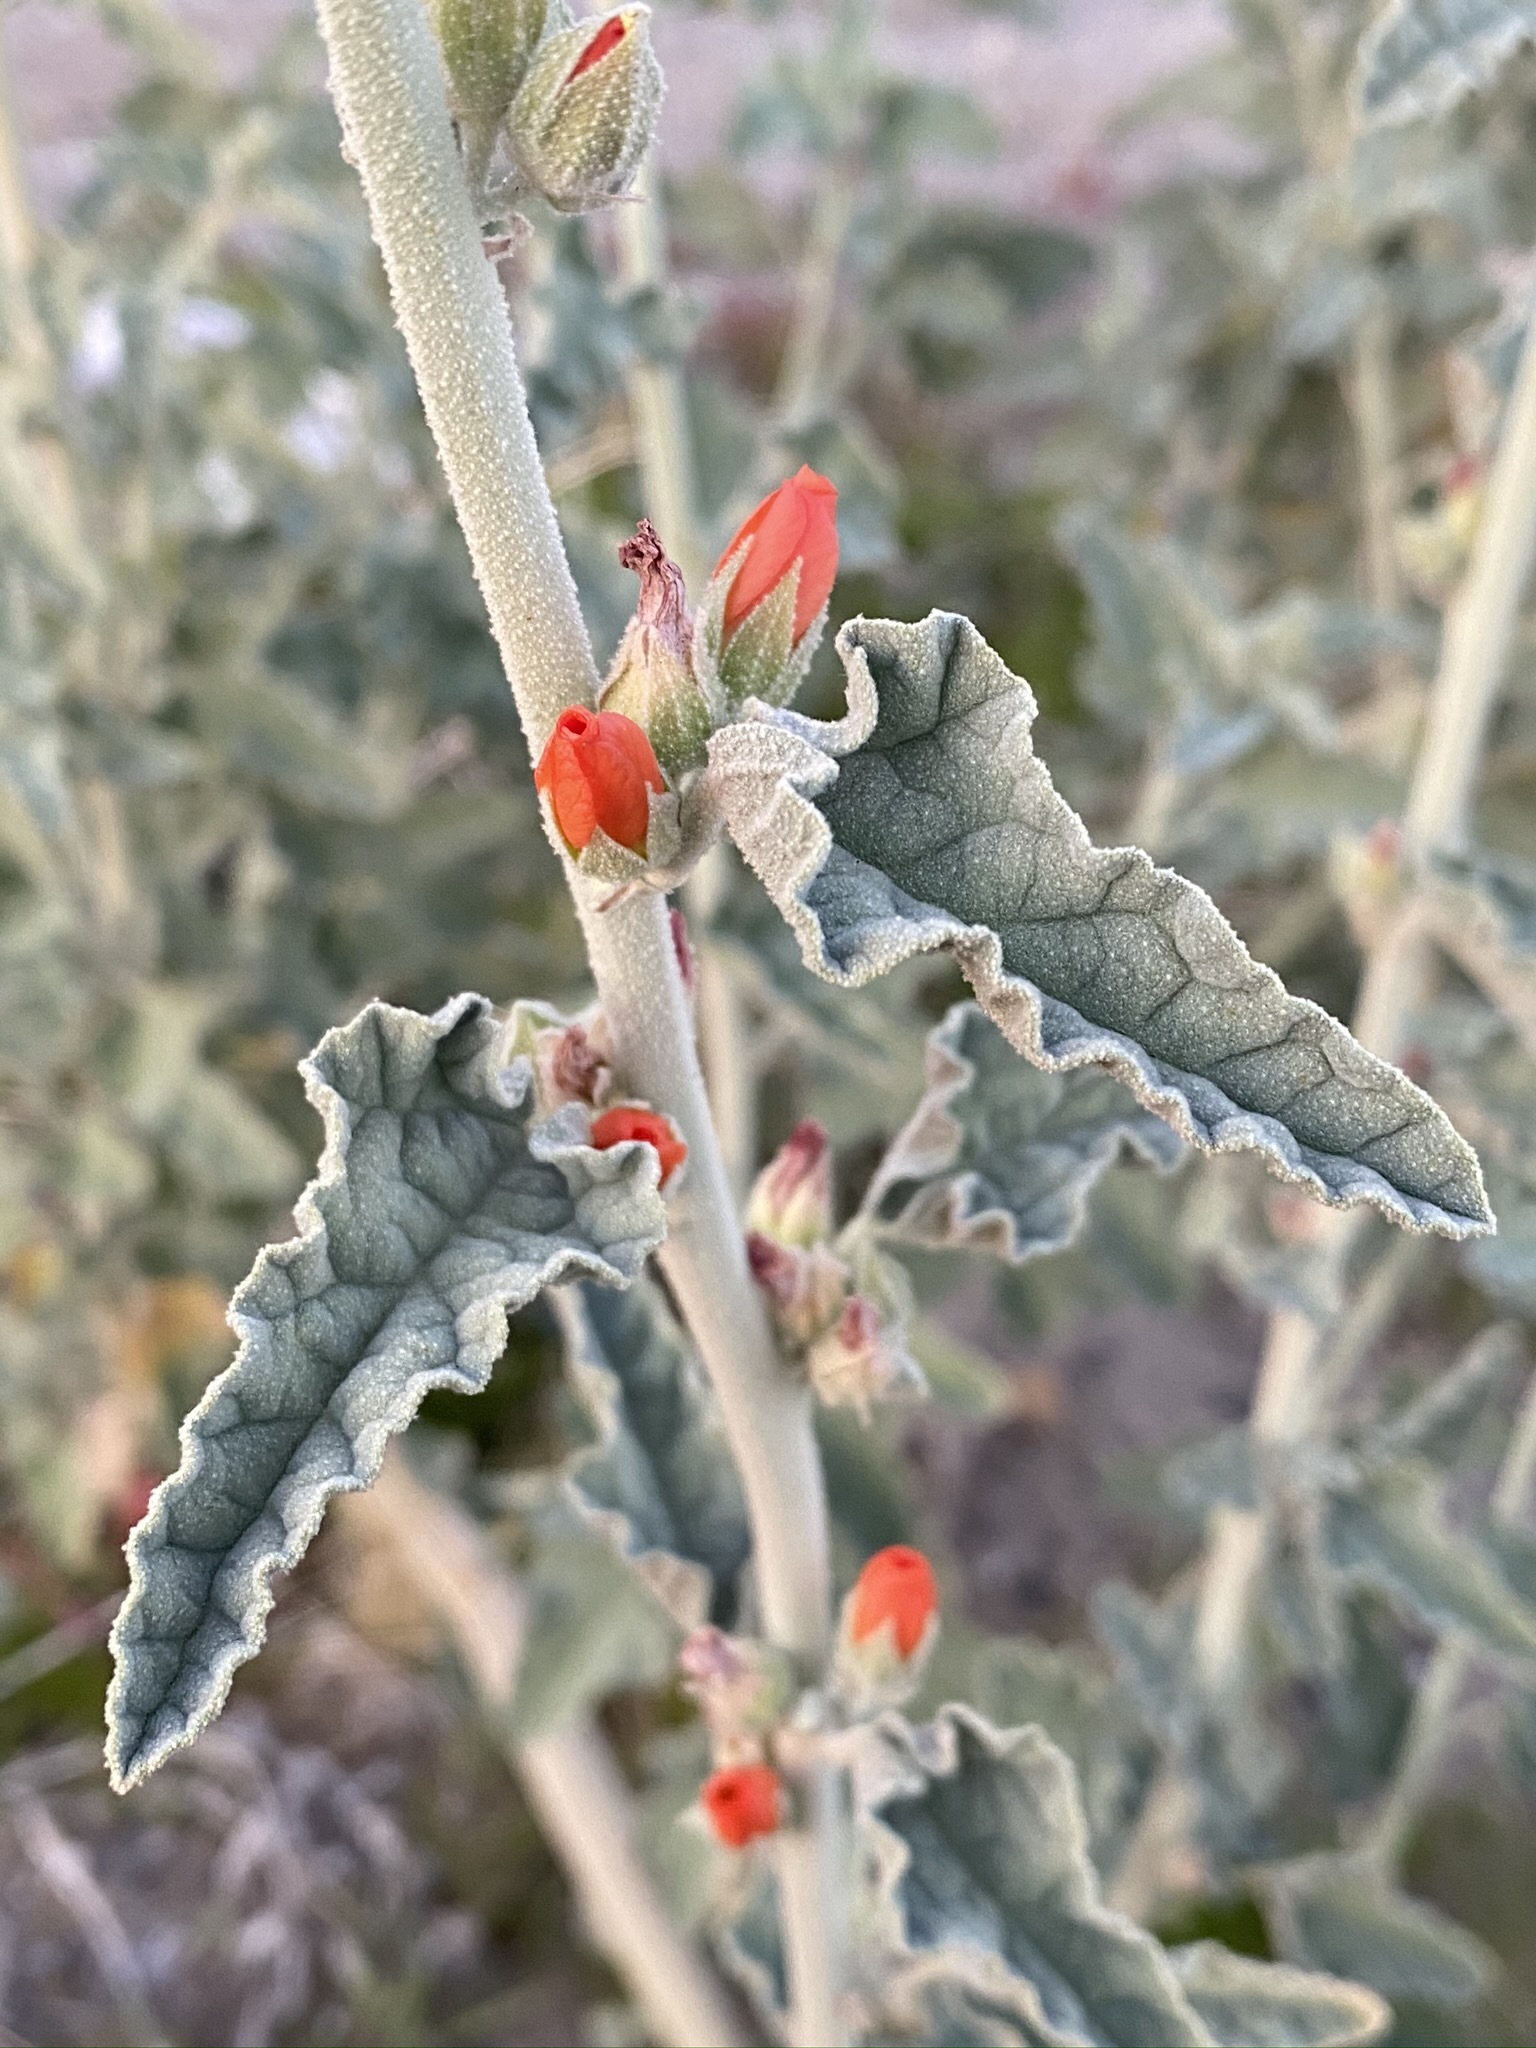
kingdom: Plantae
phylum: Tracheophyta
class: Magnoliopsida
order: Malvales
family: Malvaceae
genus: Sphaeralcea
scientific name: Sphaeralcea orcuttii
